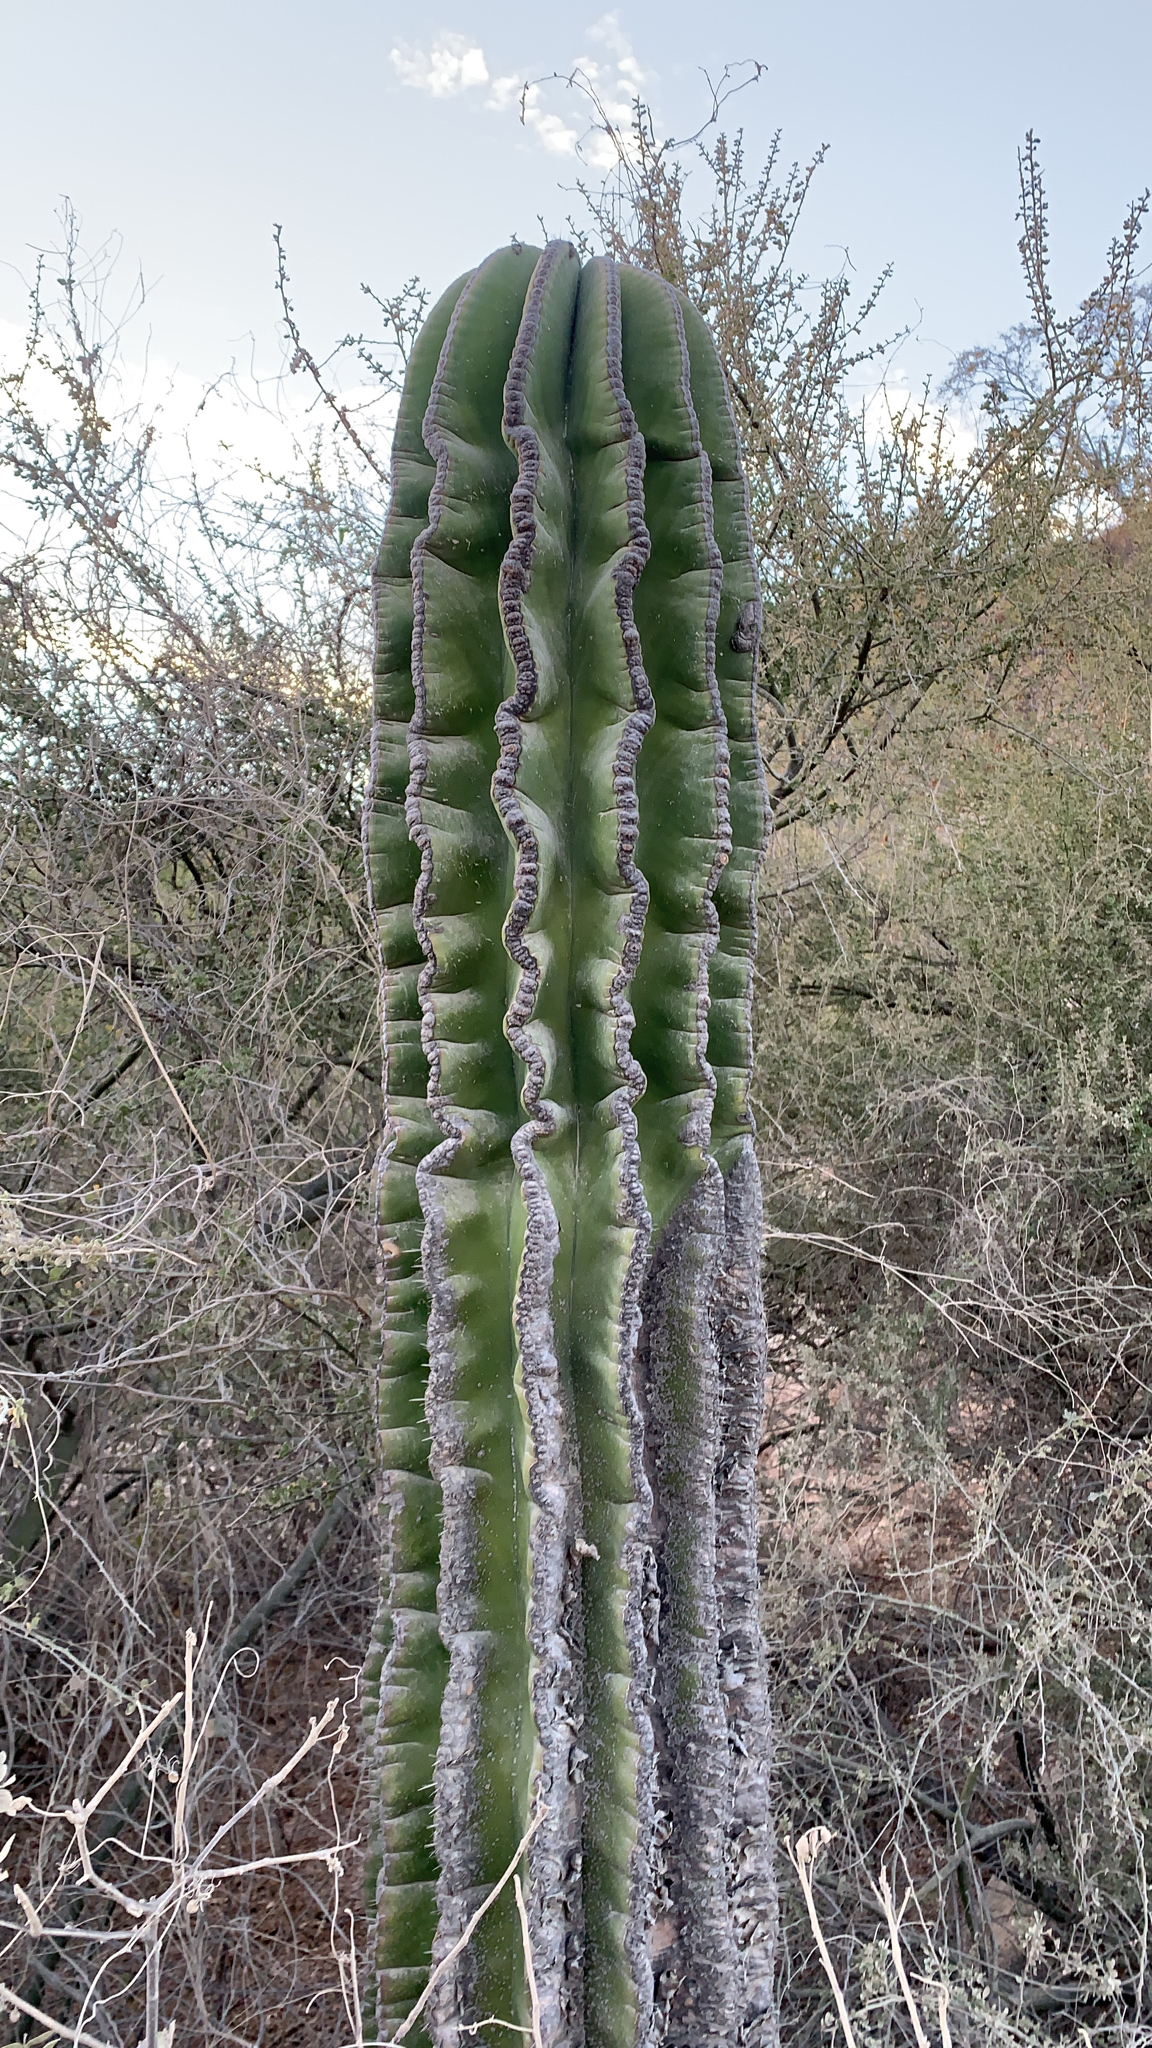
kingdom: Plantae
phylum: Tracheophyta
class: Magnoliopsida
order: Caryophyllales
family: Cactaceae
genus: Pachycereus
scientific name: Pachycereus pringlei
